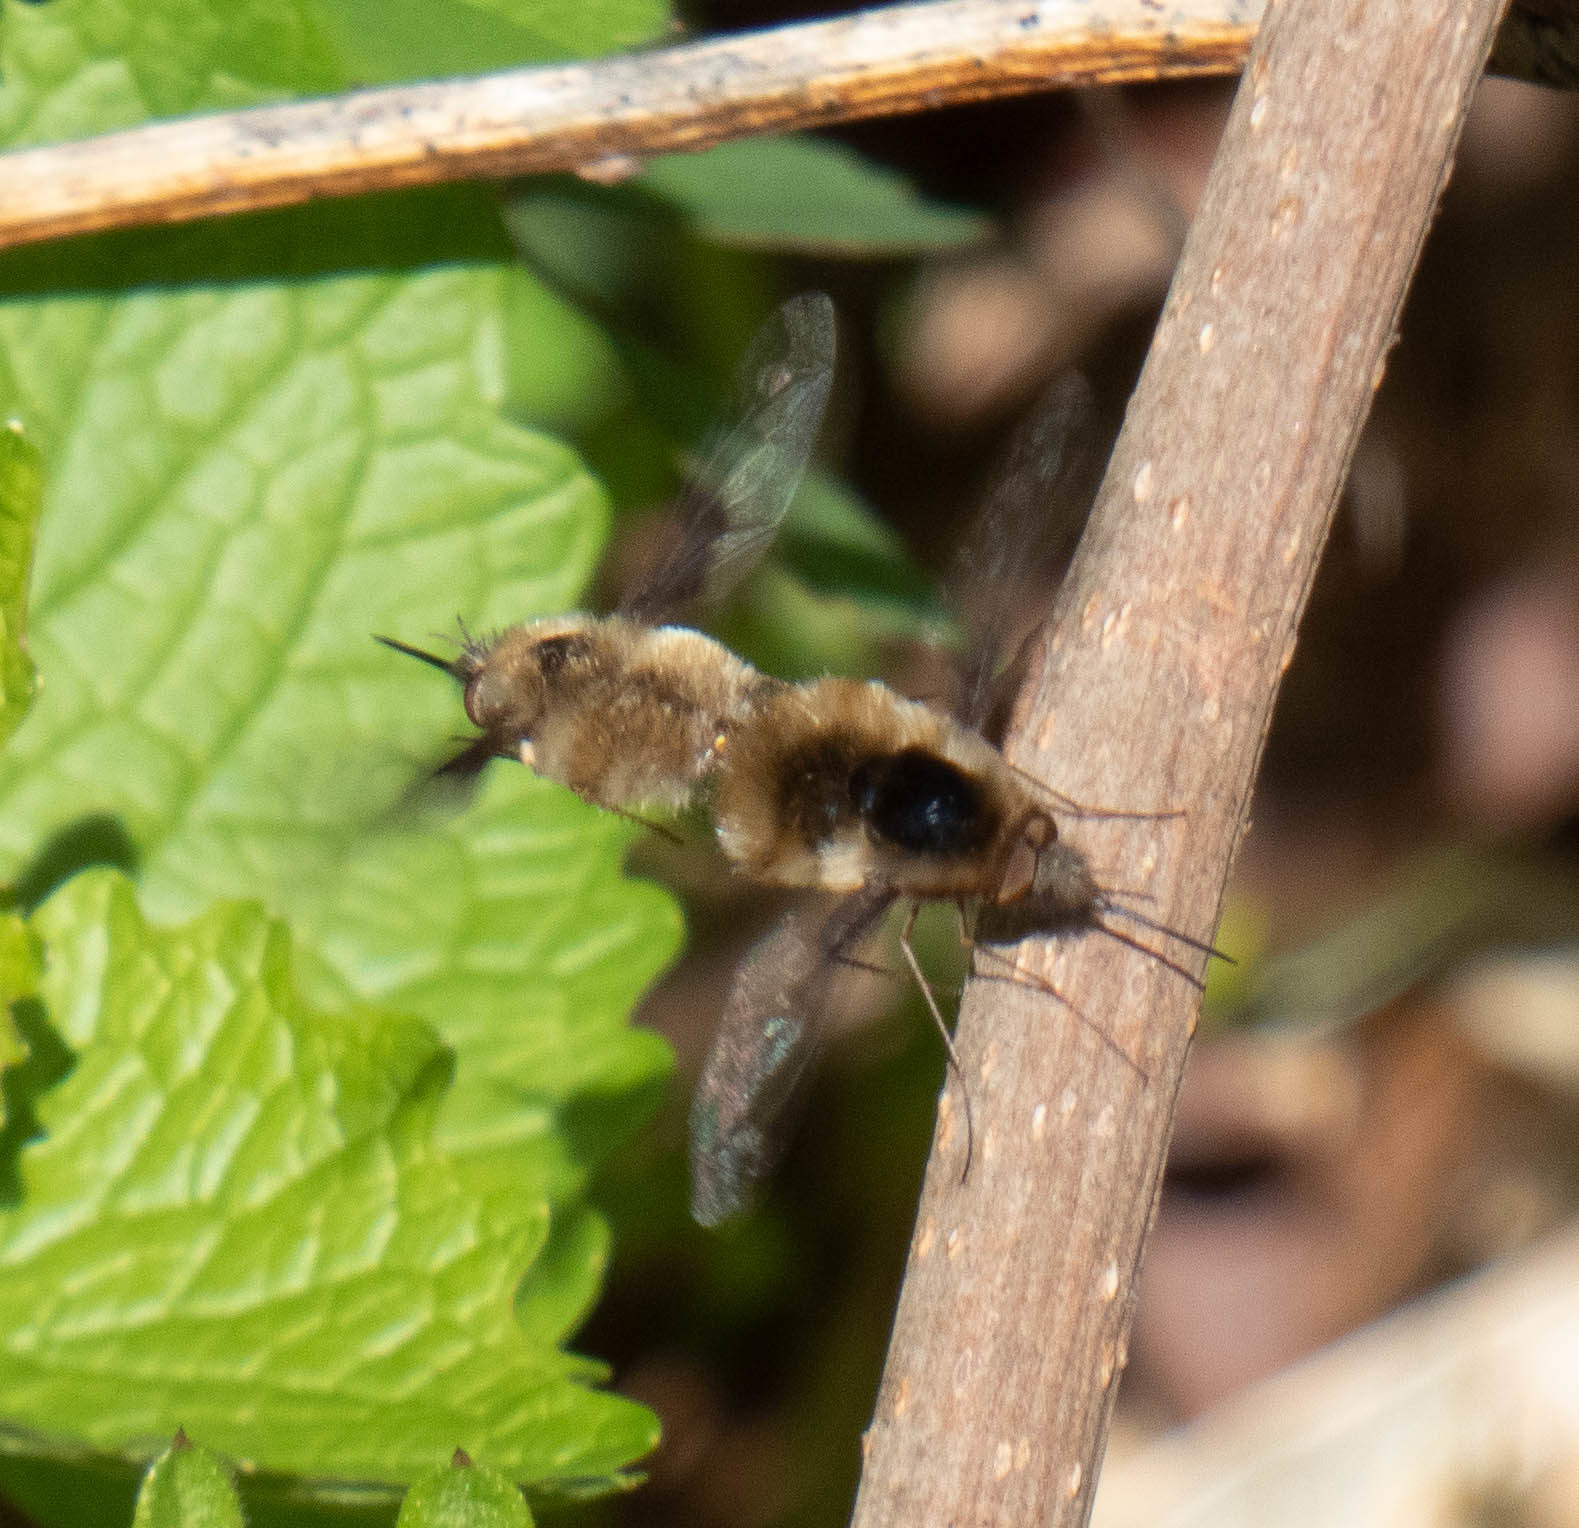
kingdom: Animalia
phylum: Arthropoda
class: Insecta
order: Diptera
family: Bombyliidae
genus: Bombylius
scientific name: Bombylius major
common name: Bee fly
